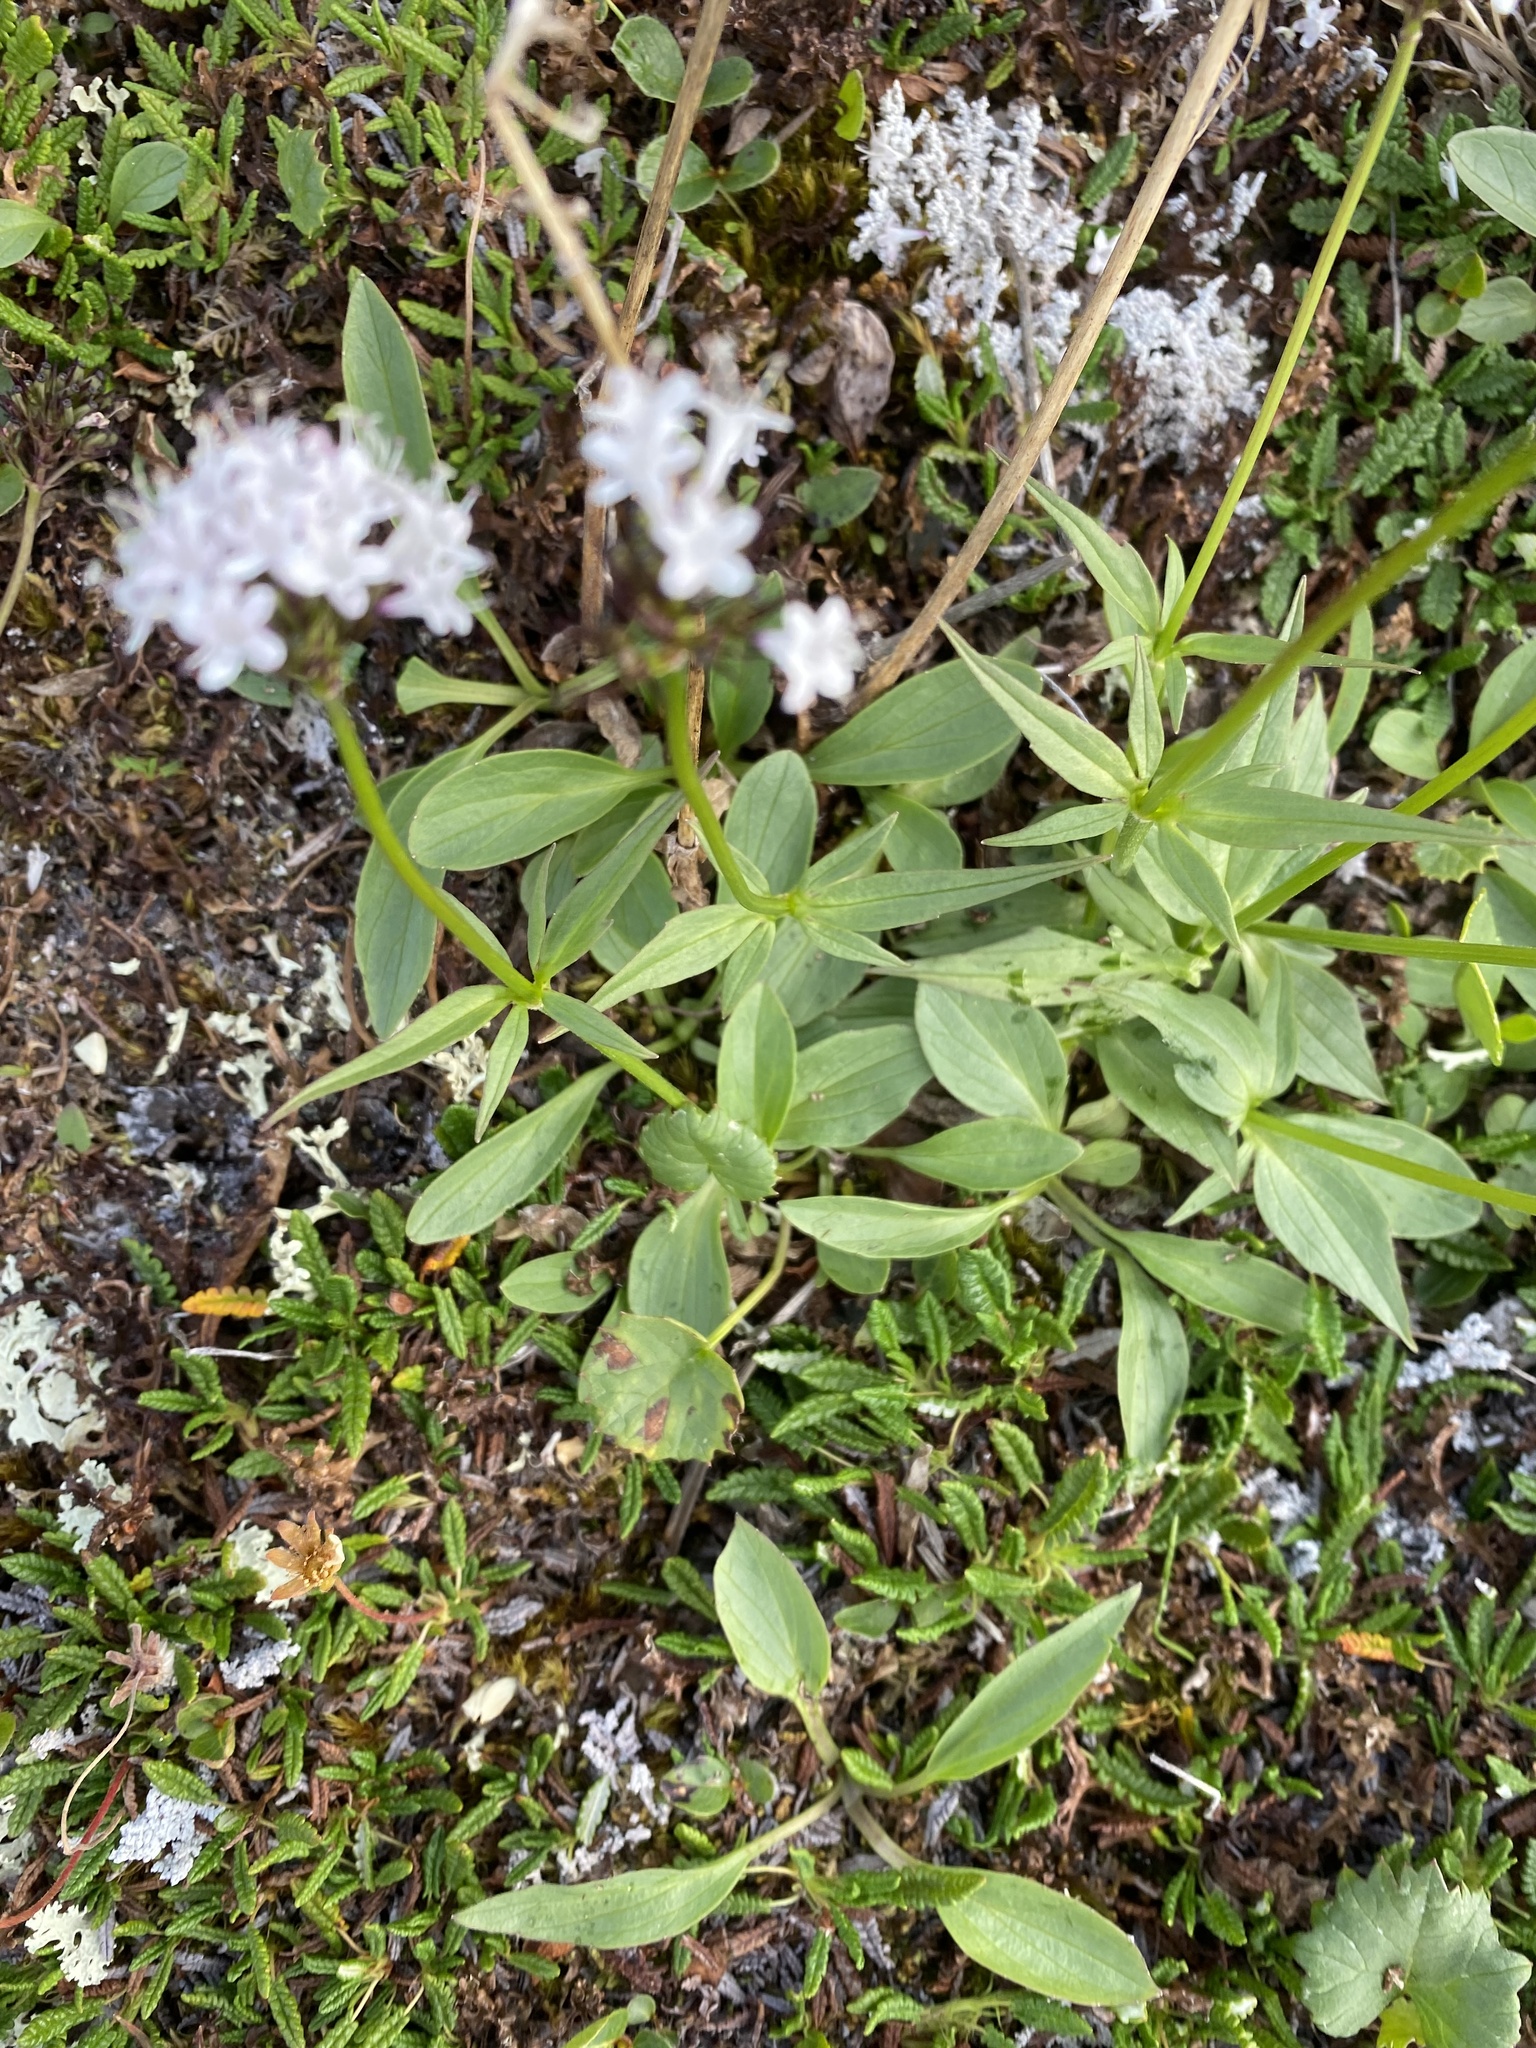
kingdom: Plantae
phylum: Tracheophyta
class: Magnoliopsida
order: Dipsacales
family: Caprifoliaceae
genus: Valeriana
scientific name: Valeriana capitata
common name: Capitate valerian
